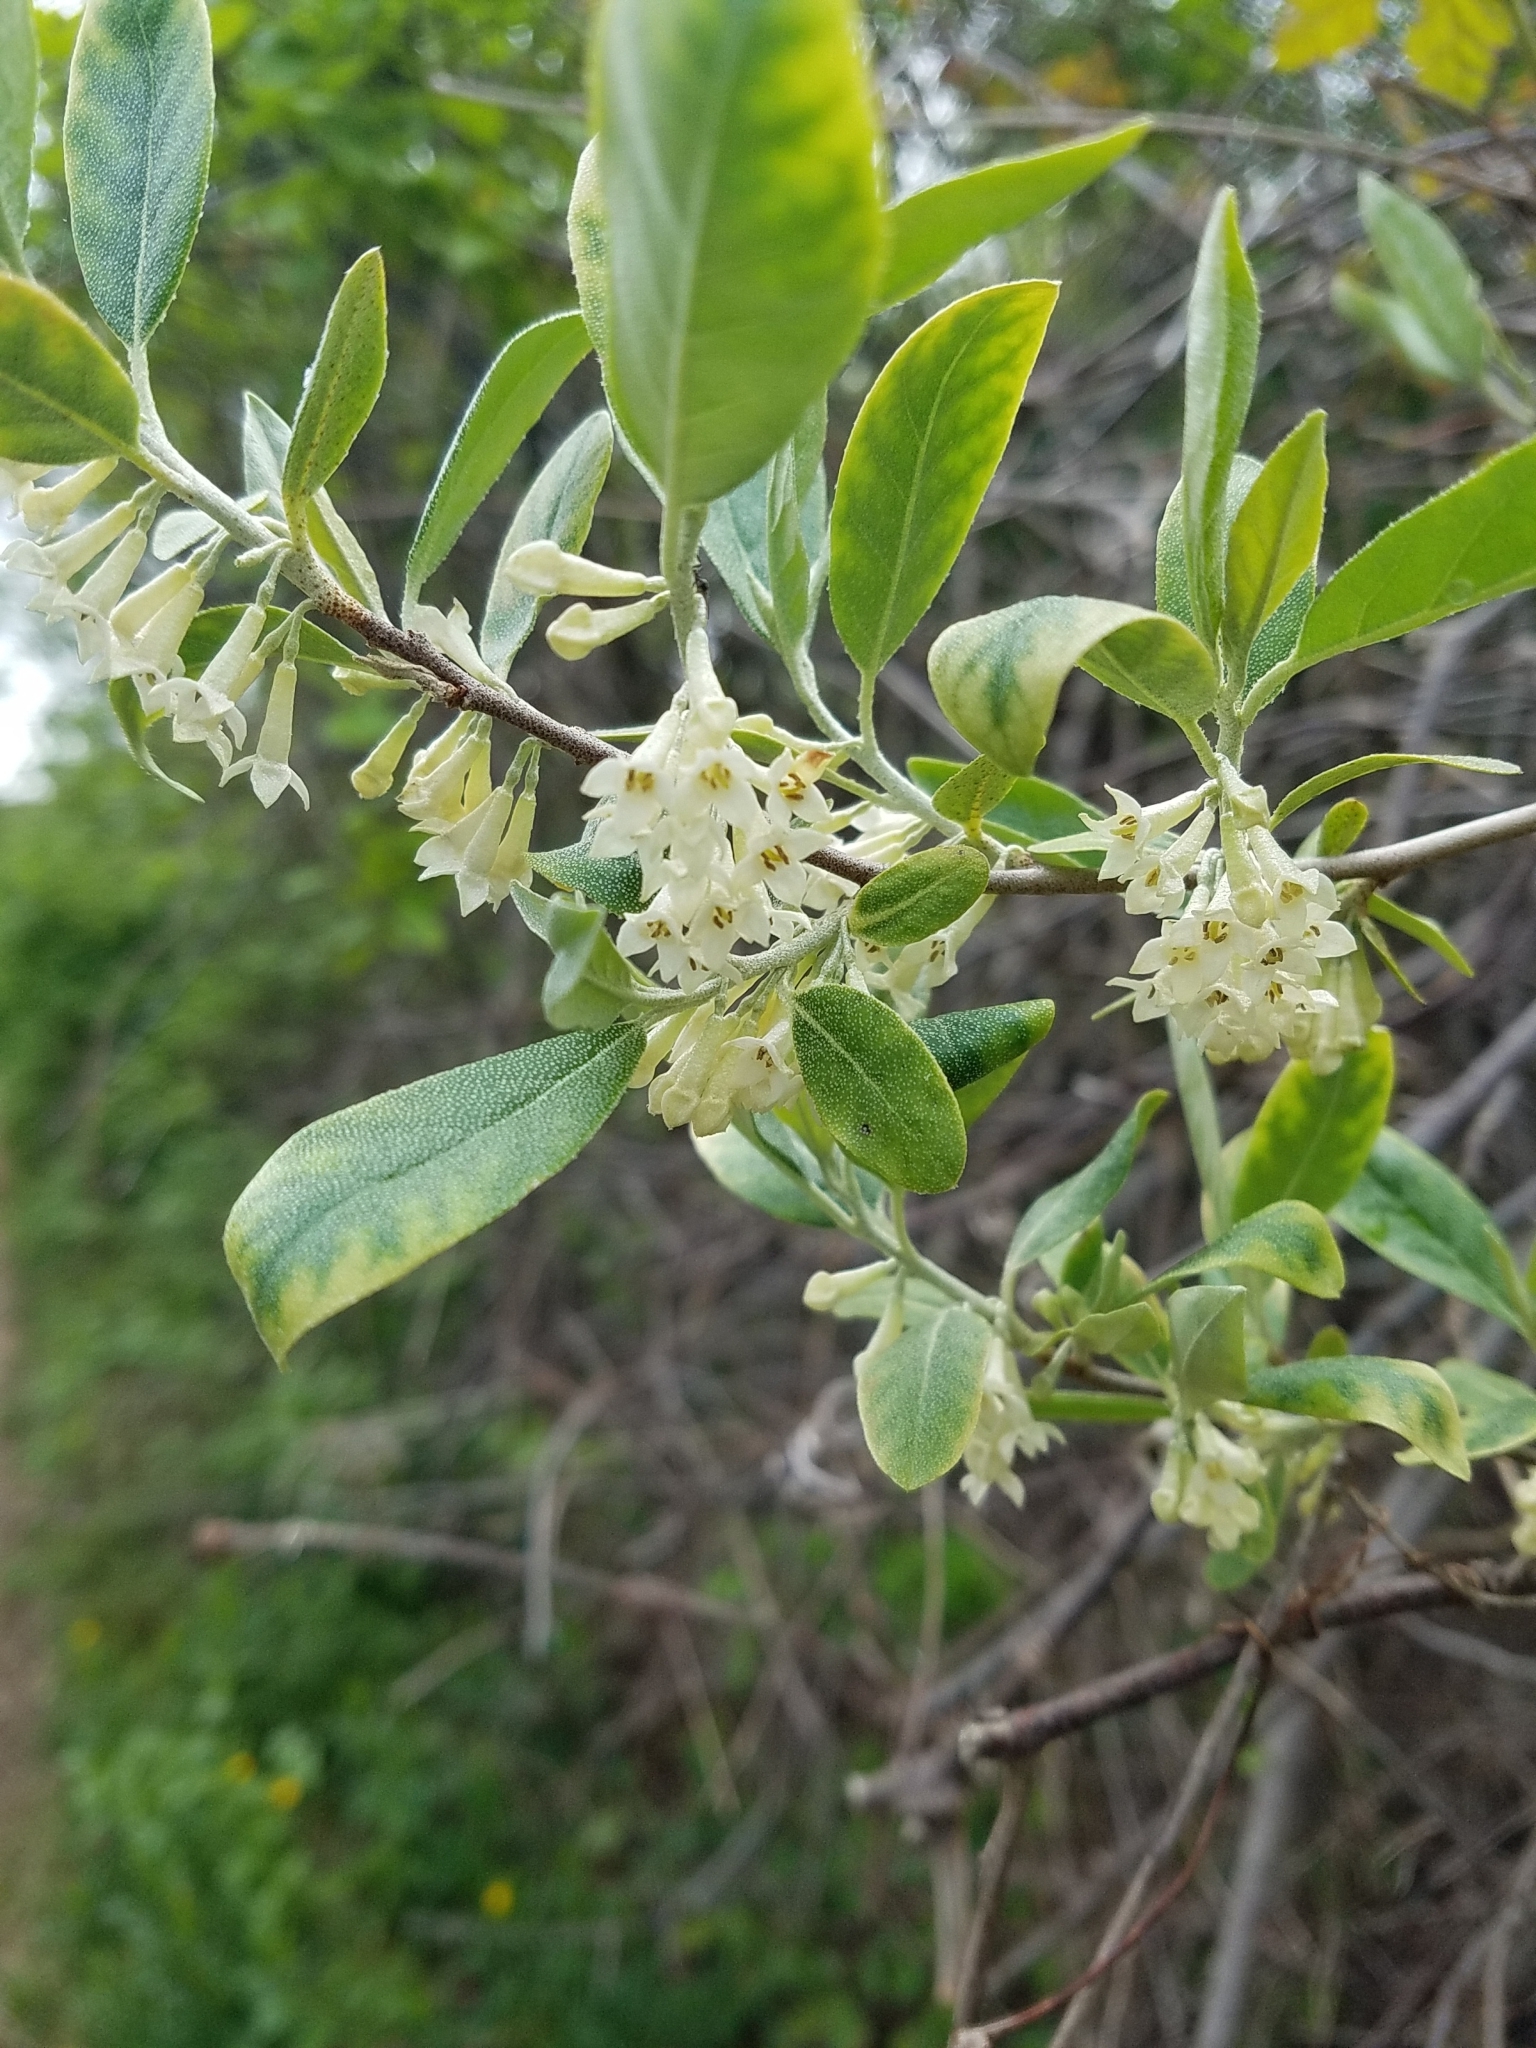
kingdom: Plantae
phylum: Tracheophyta
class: Magnoliopsida
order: Rosales
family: Elaeagnaceae
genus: Elaeagnus
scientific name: Elaeagnus umbellata
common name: Autumn olive
